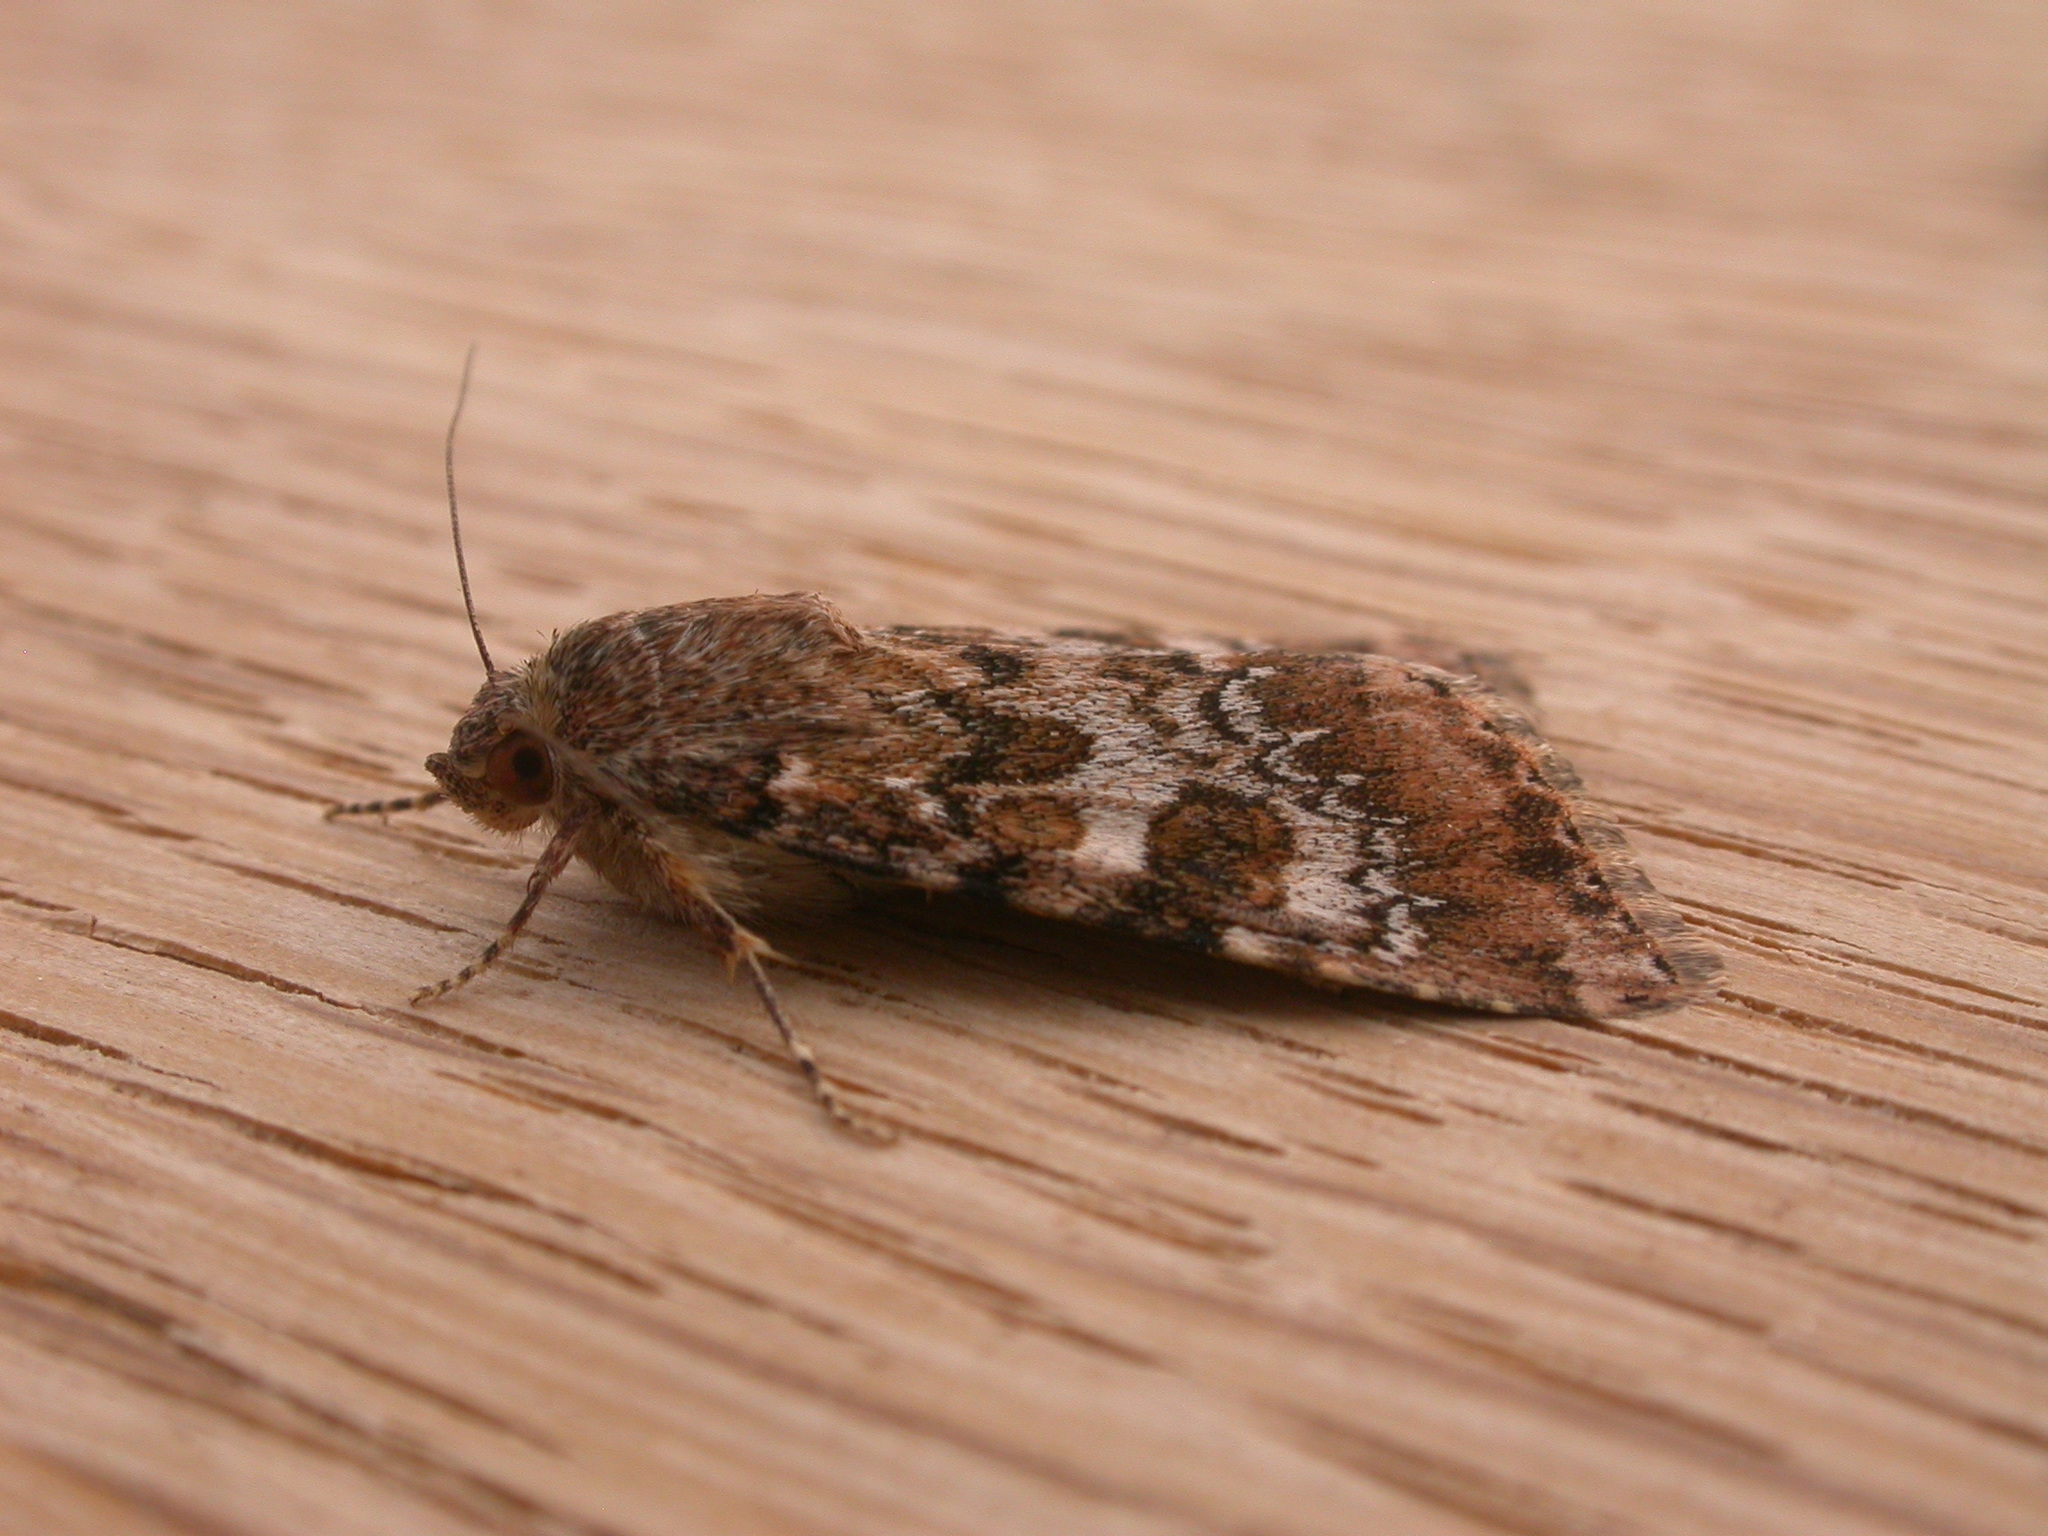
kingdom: Animalia
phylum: Arthropoda
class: Insecta
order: Lepidoptera
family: Noctuidae
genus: Heliothis
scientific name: Heliothis punctifera
